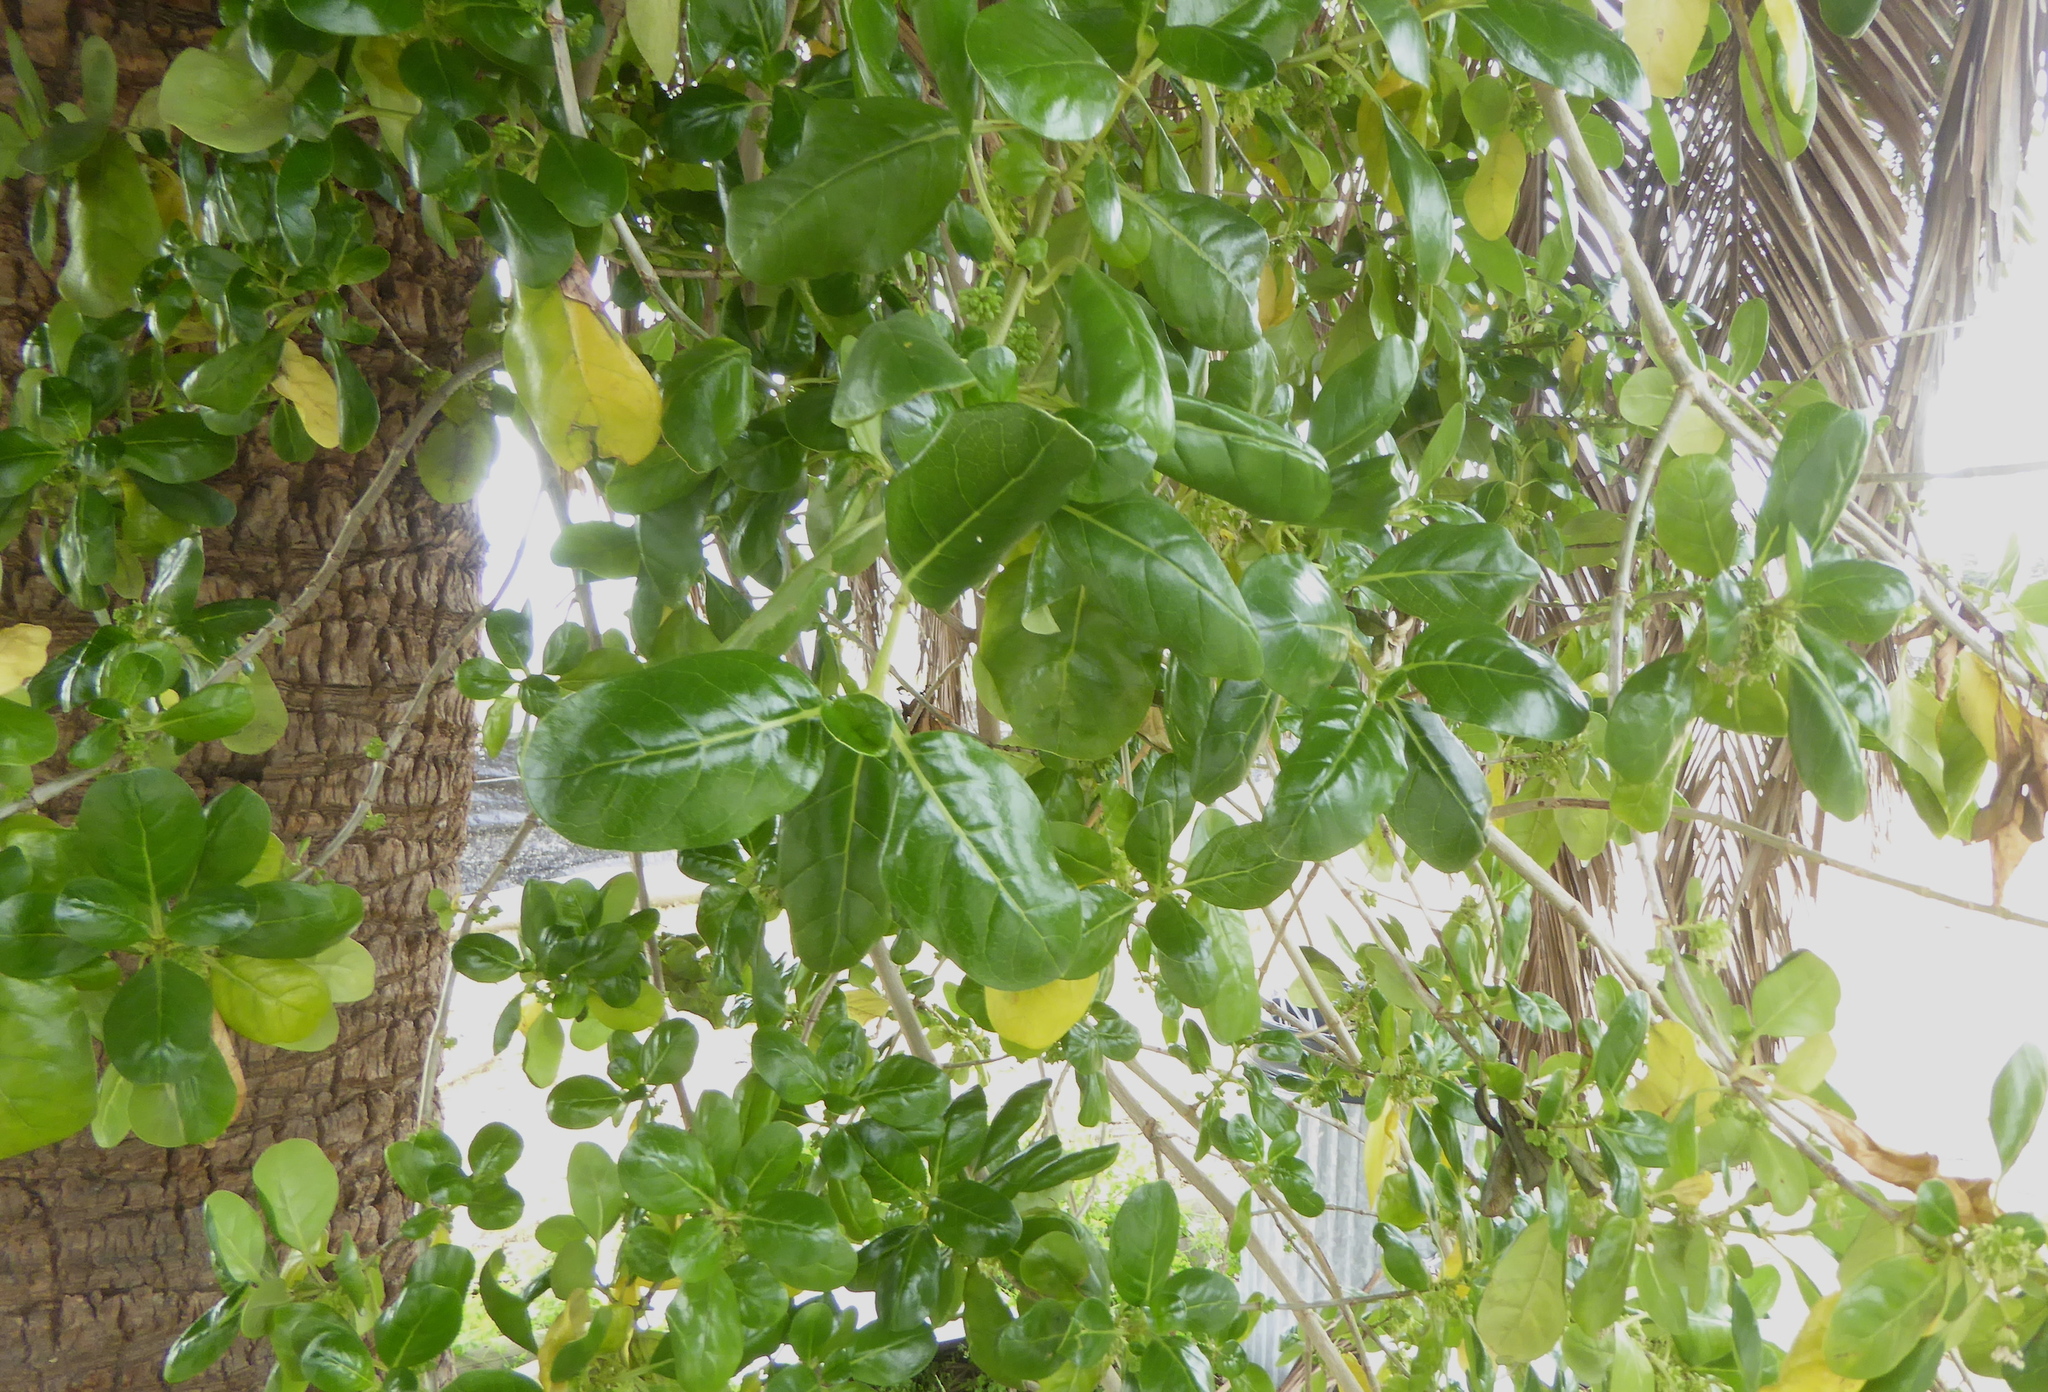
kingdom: Plantae
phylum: Tracheophyta
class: Magnoliopsida
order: Gentianales
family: Rubiaceae
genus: Coprosma
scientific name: Coprosma repens
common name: Tree bedstraw
